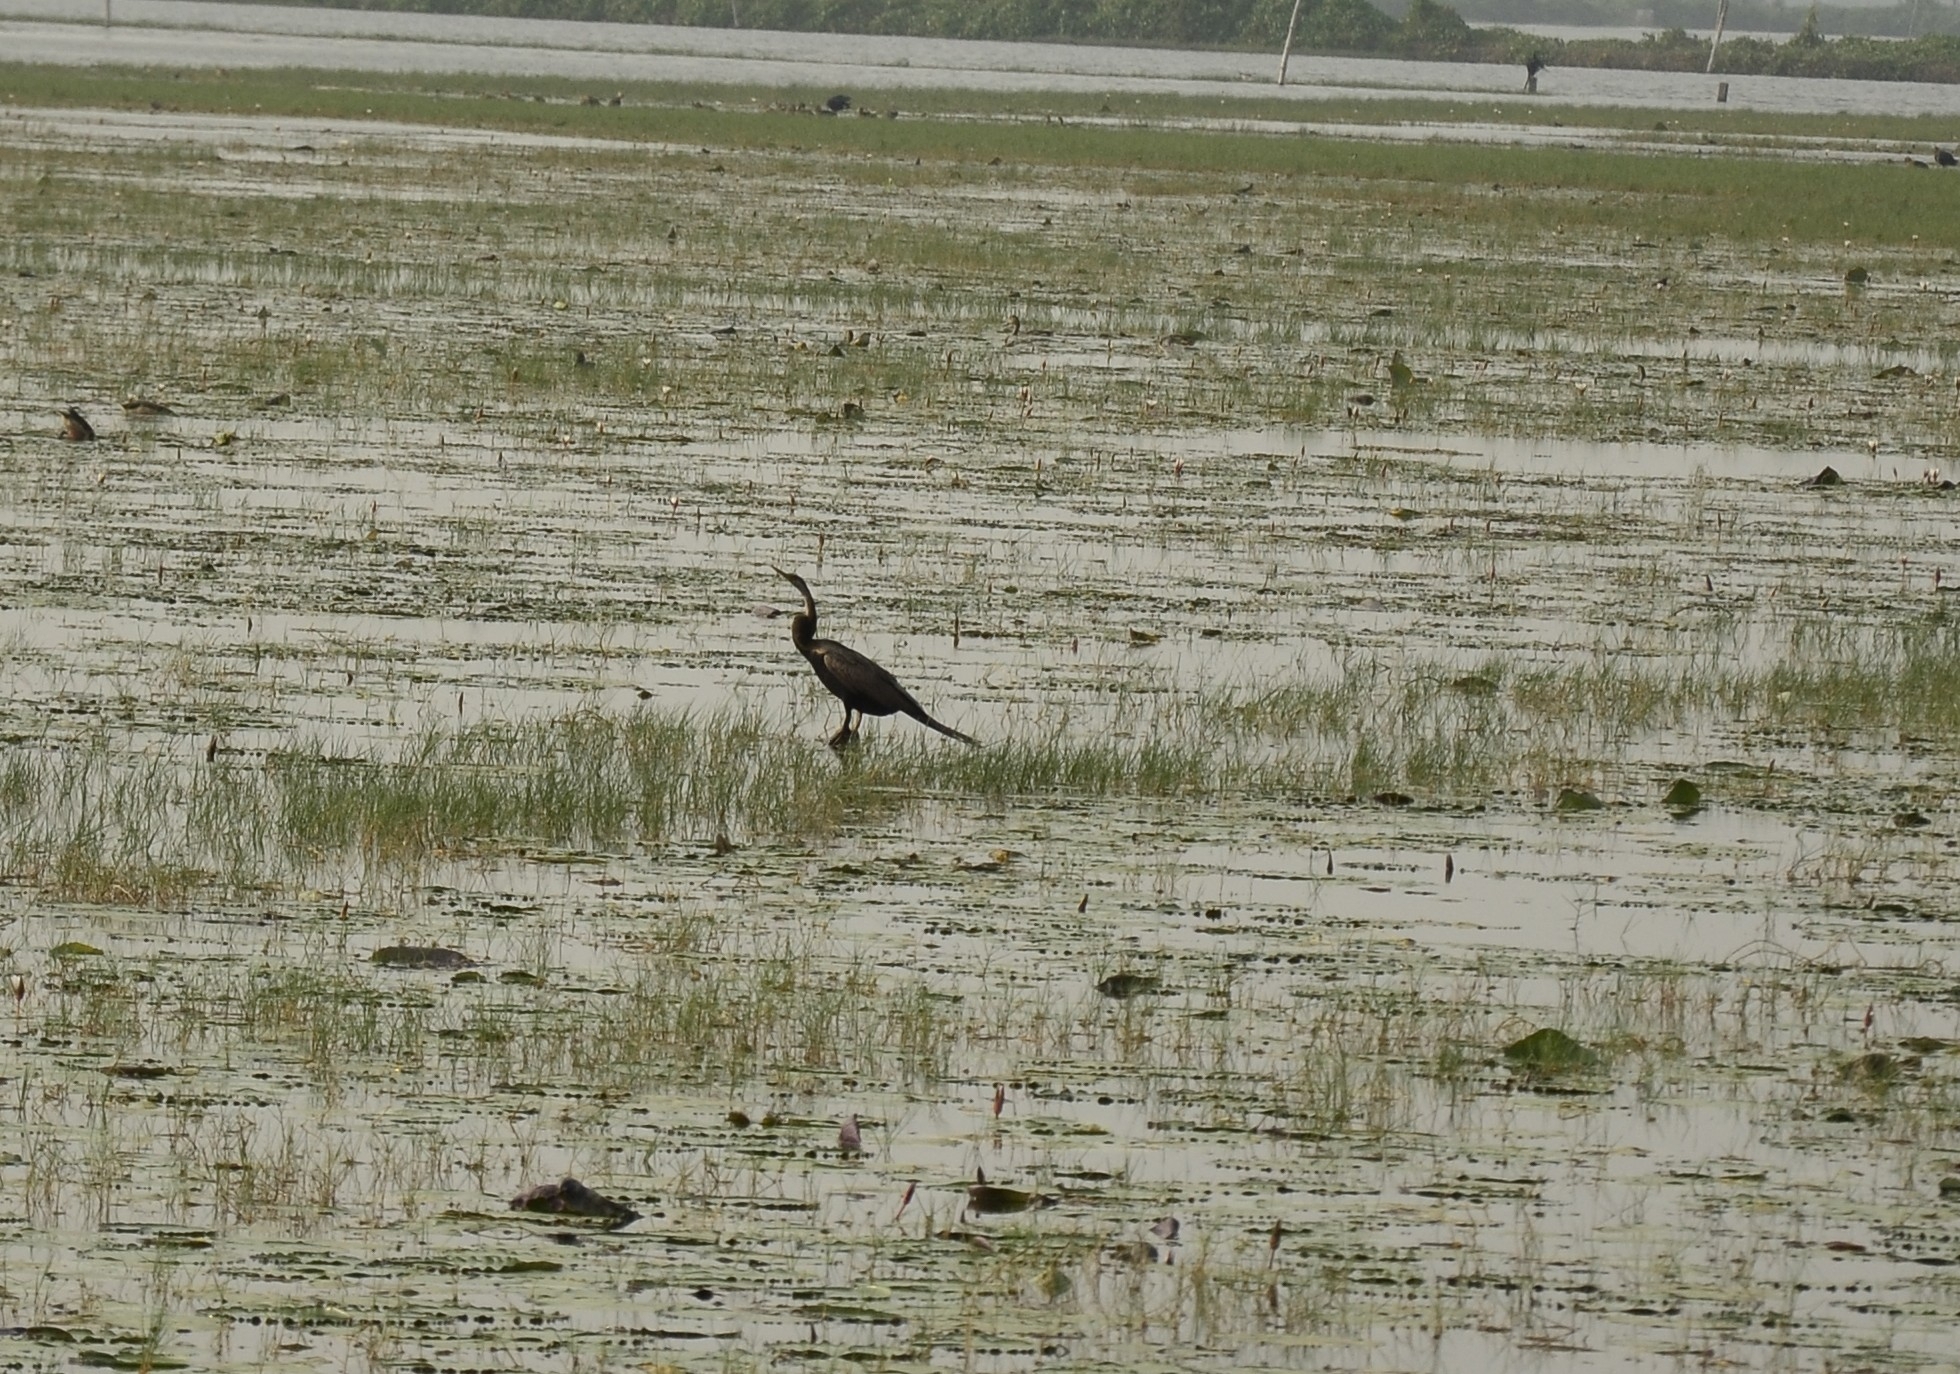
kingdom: Animalia
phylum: Chordata
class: Aves
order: Suliformes
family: Anhingidae
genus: Anhinga
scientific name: Anhinga melanogaster
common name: Oriental darter
